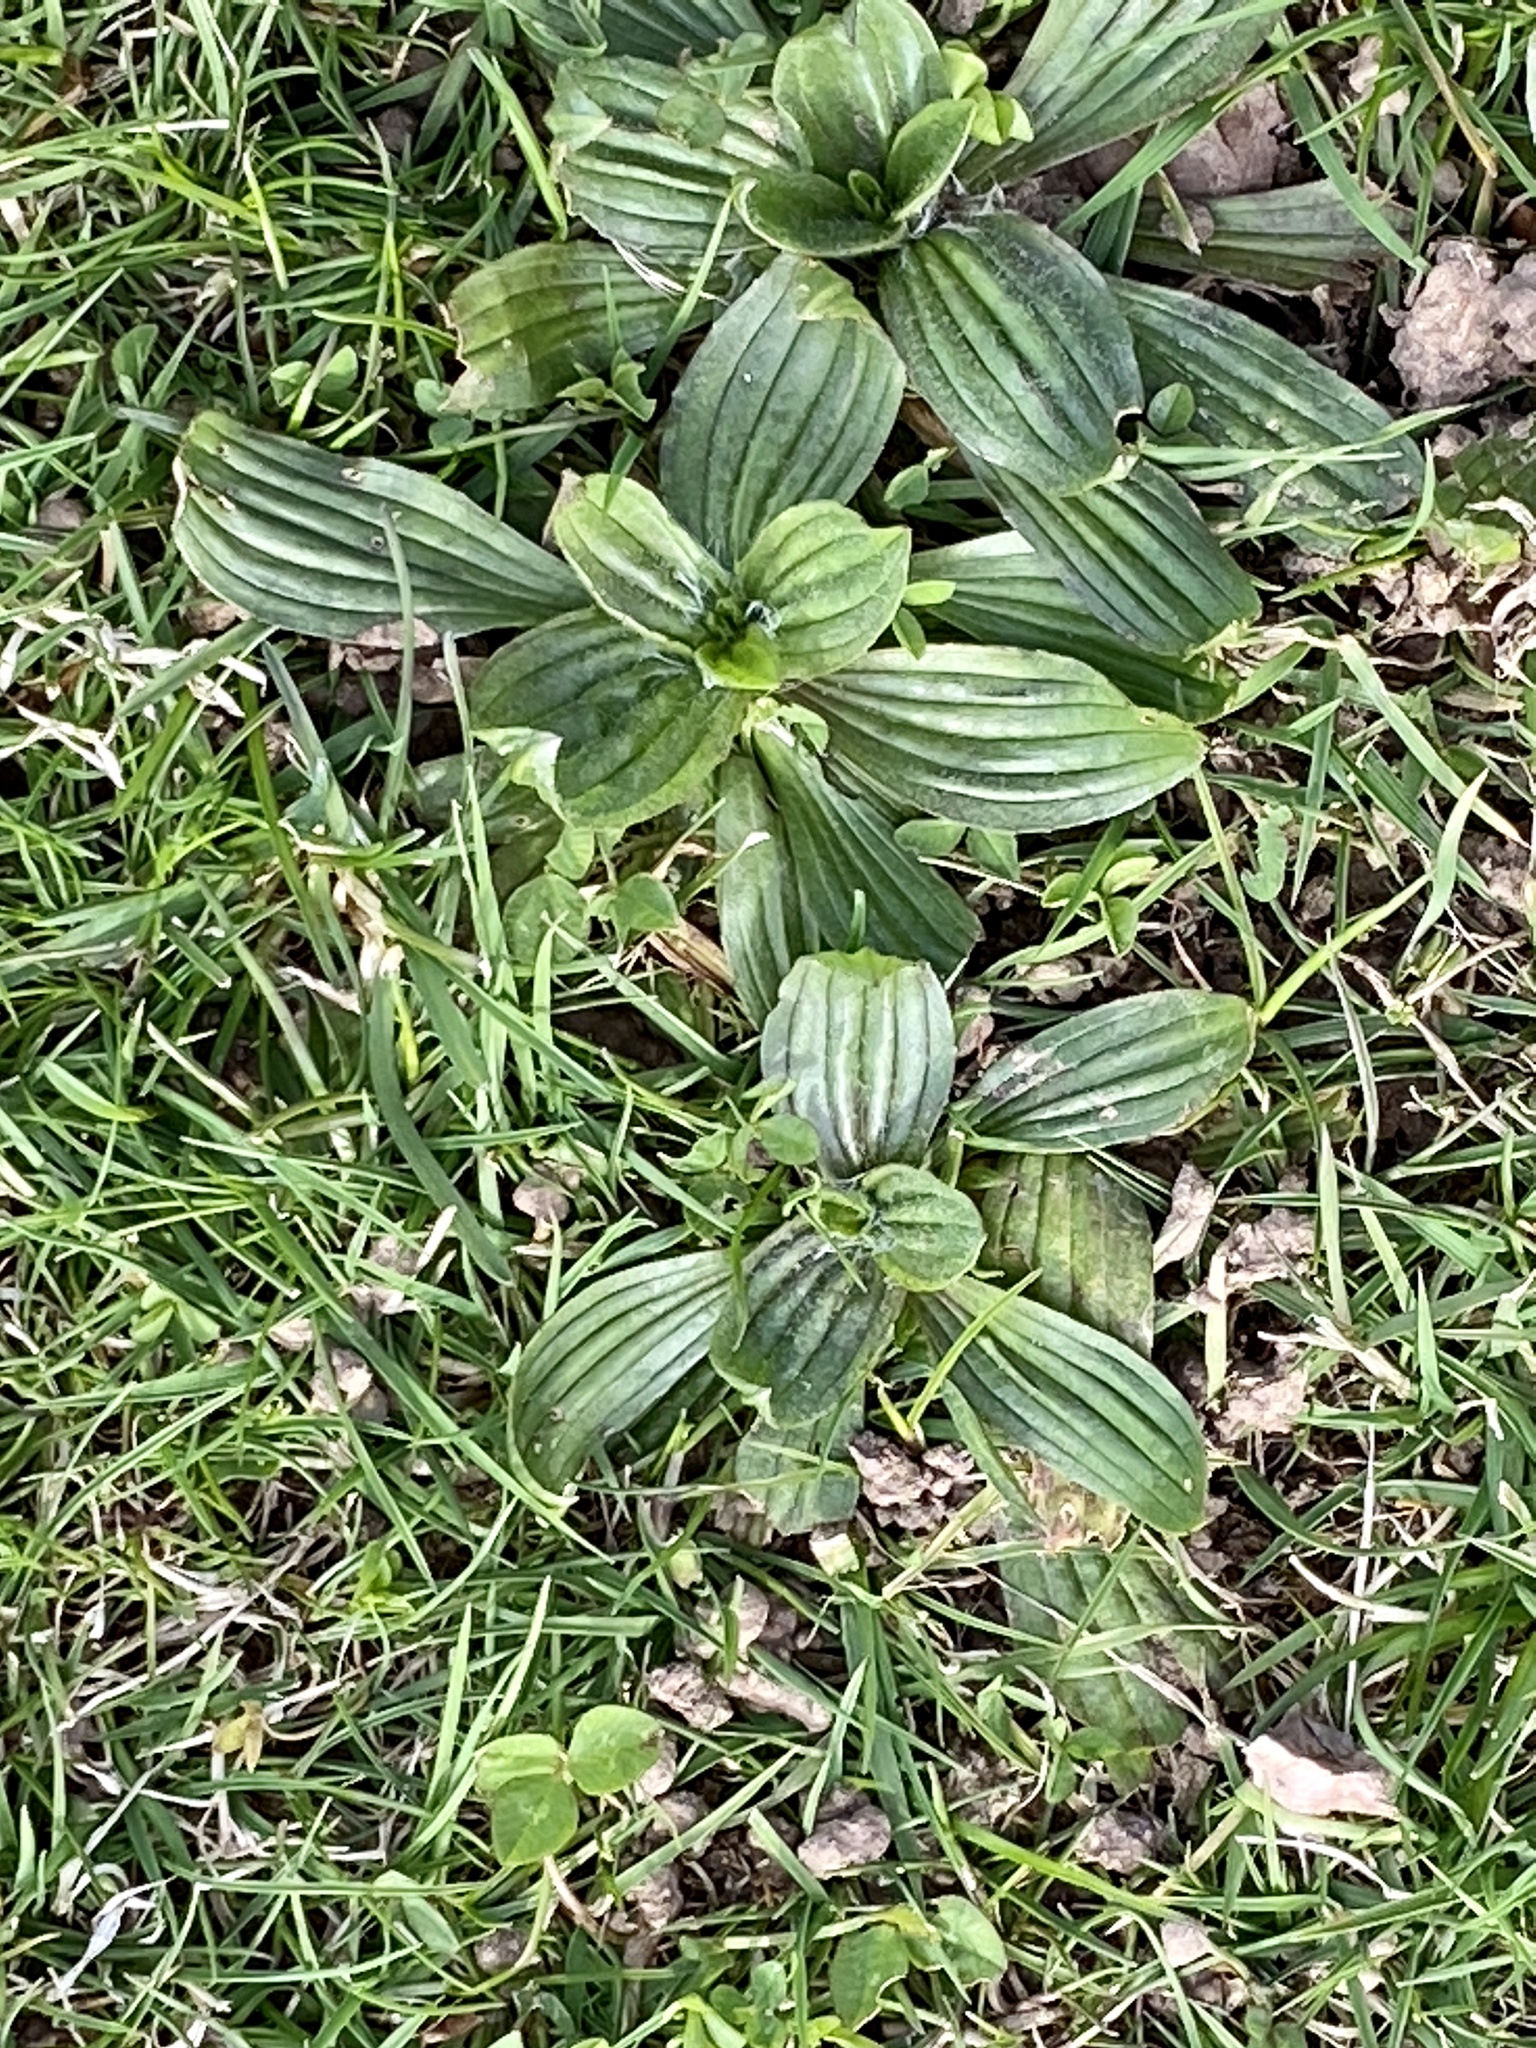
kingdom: Plantae
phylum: Tracheophyta
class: Magnoliopsida
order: Lamiales
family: Plantaginaceae
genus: Plantago
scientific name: Plantago lanceolata
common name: Ribwort plantain
